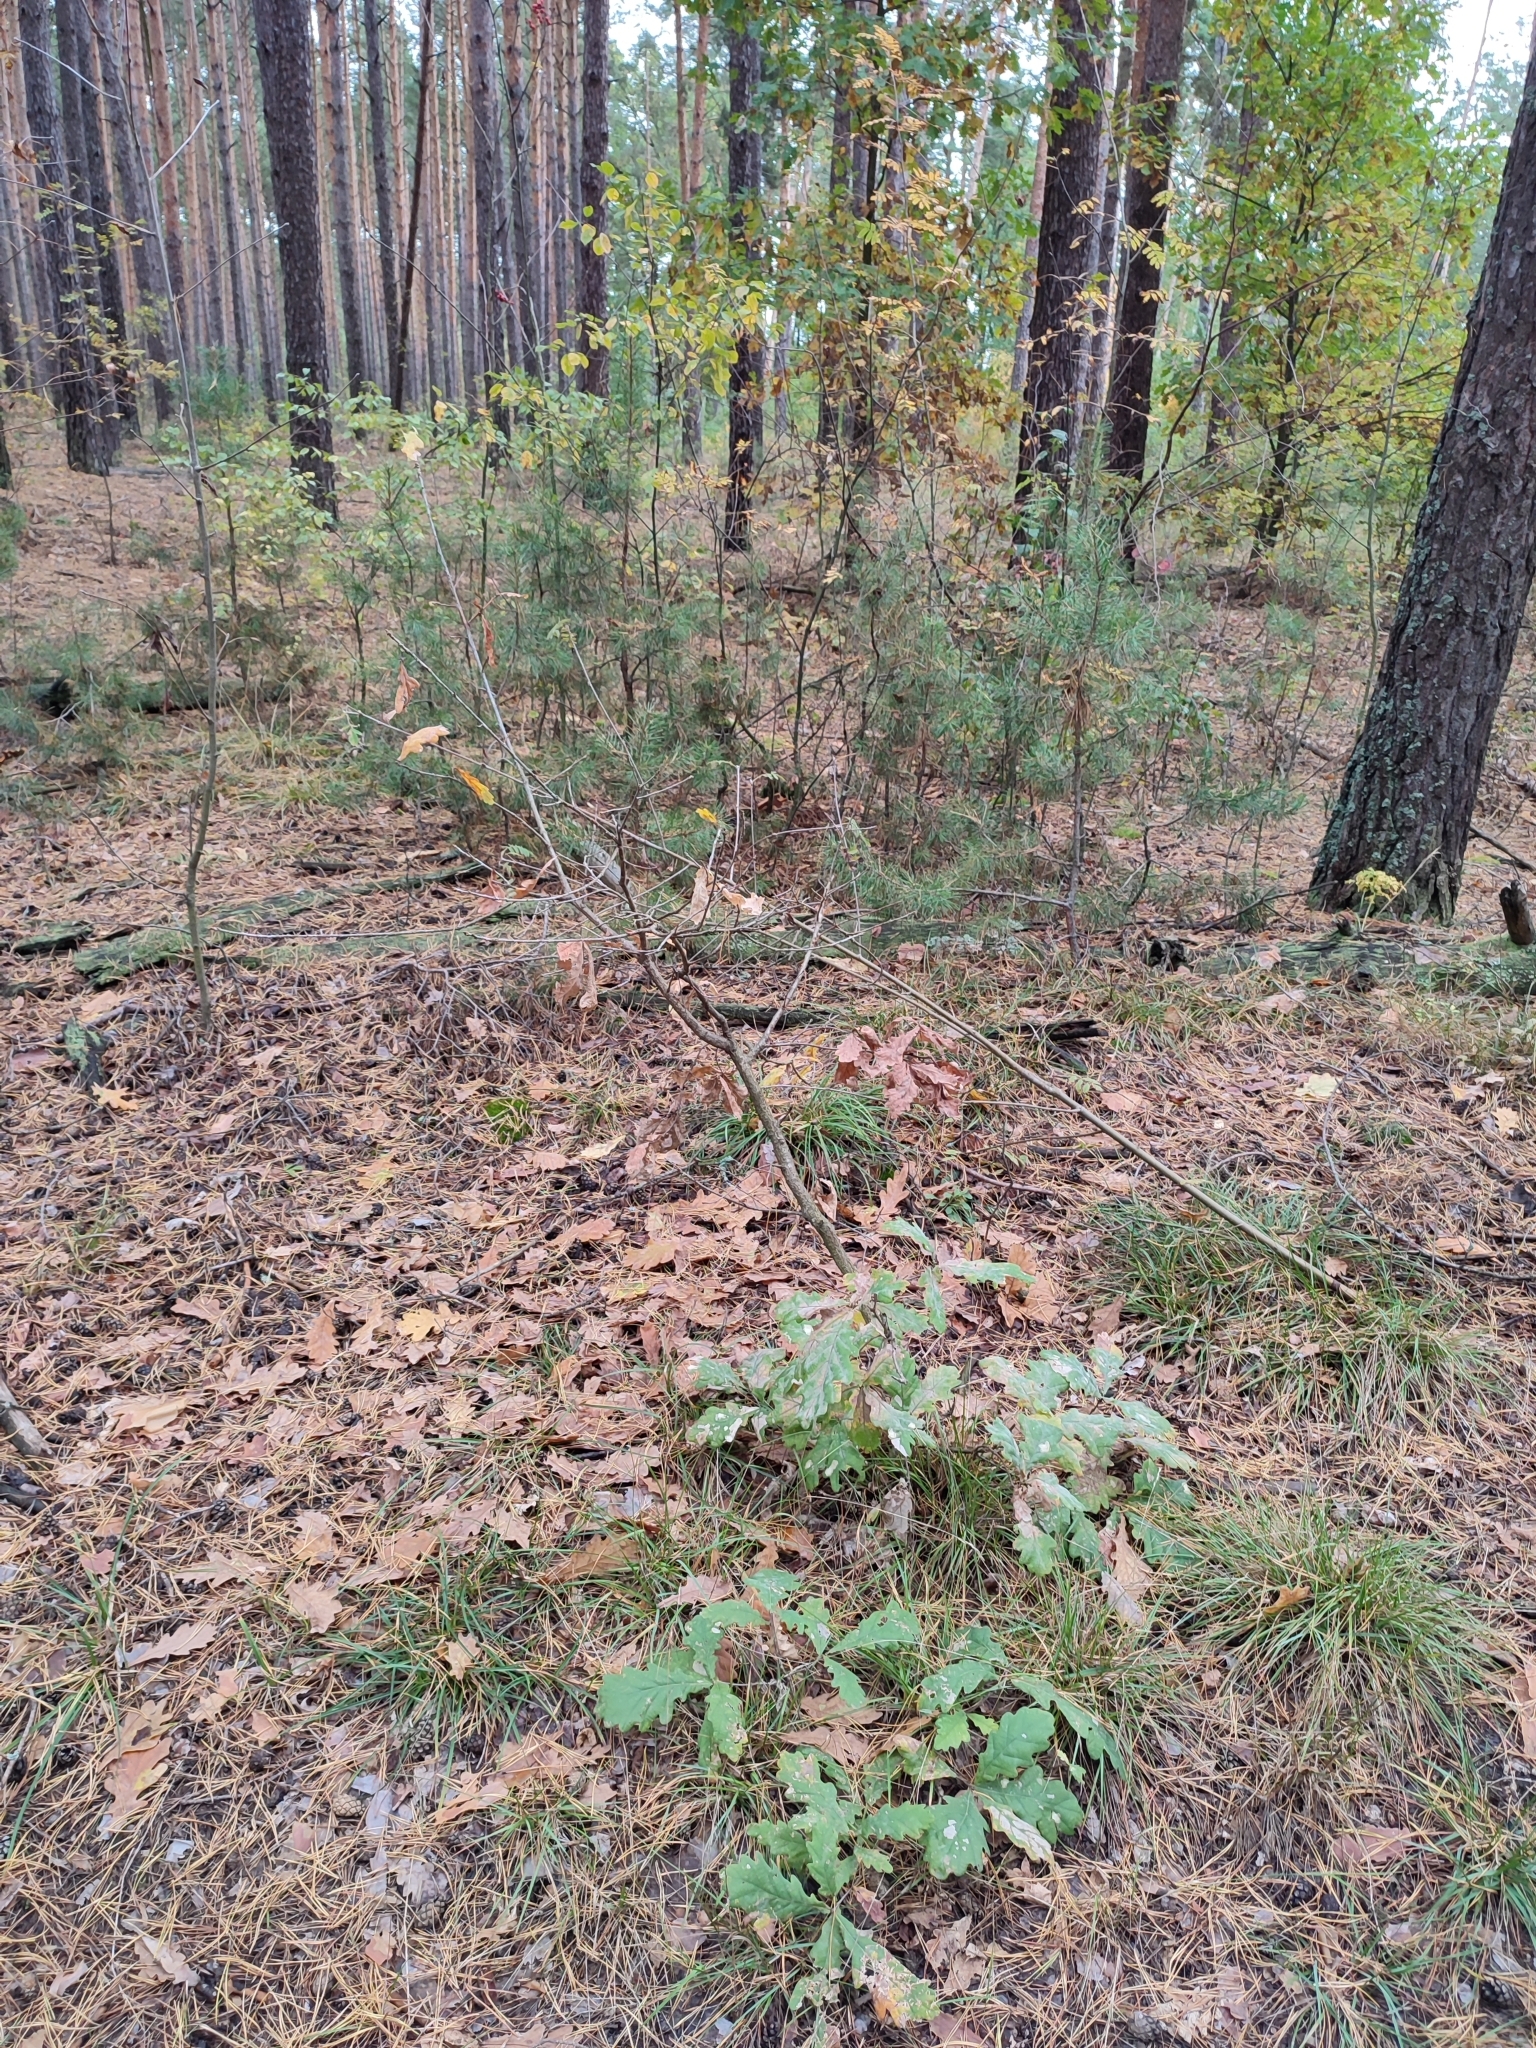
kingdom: Plantae
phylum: Tracheophyta
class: Magnoliopsida
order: Fagales
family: Fagaceae
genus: Quercus
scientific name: Quercus robur
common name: Pedunculate oak
